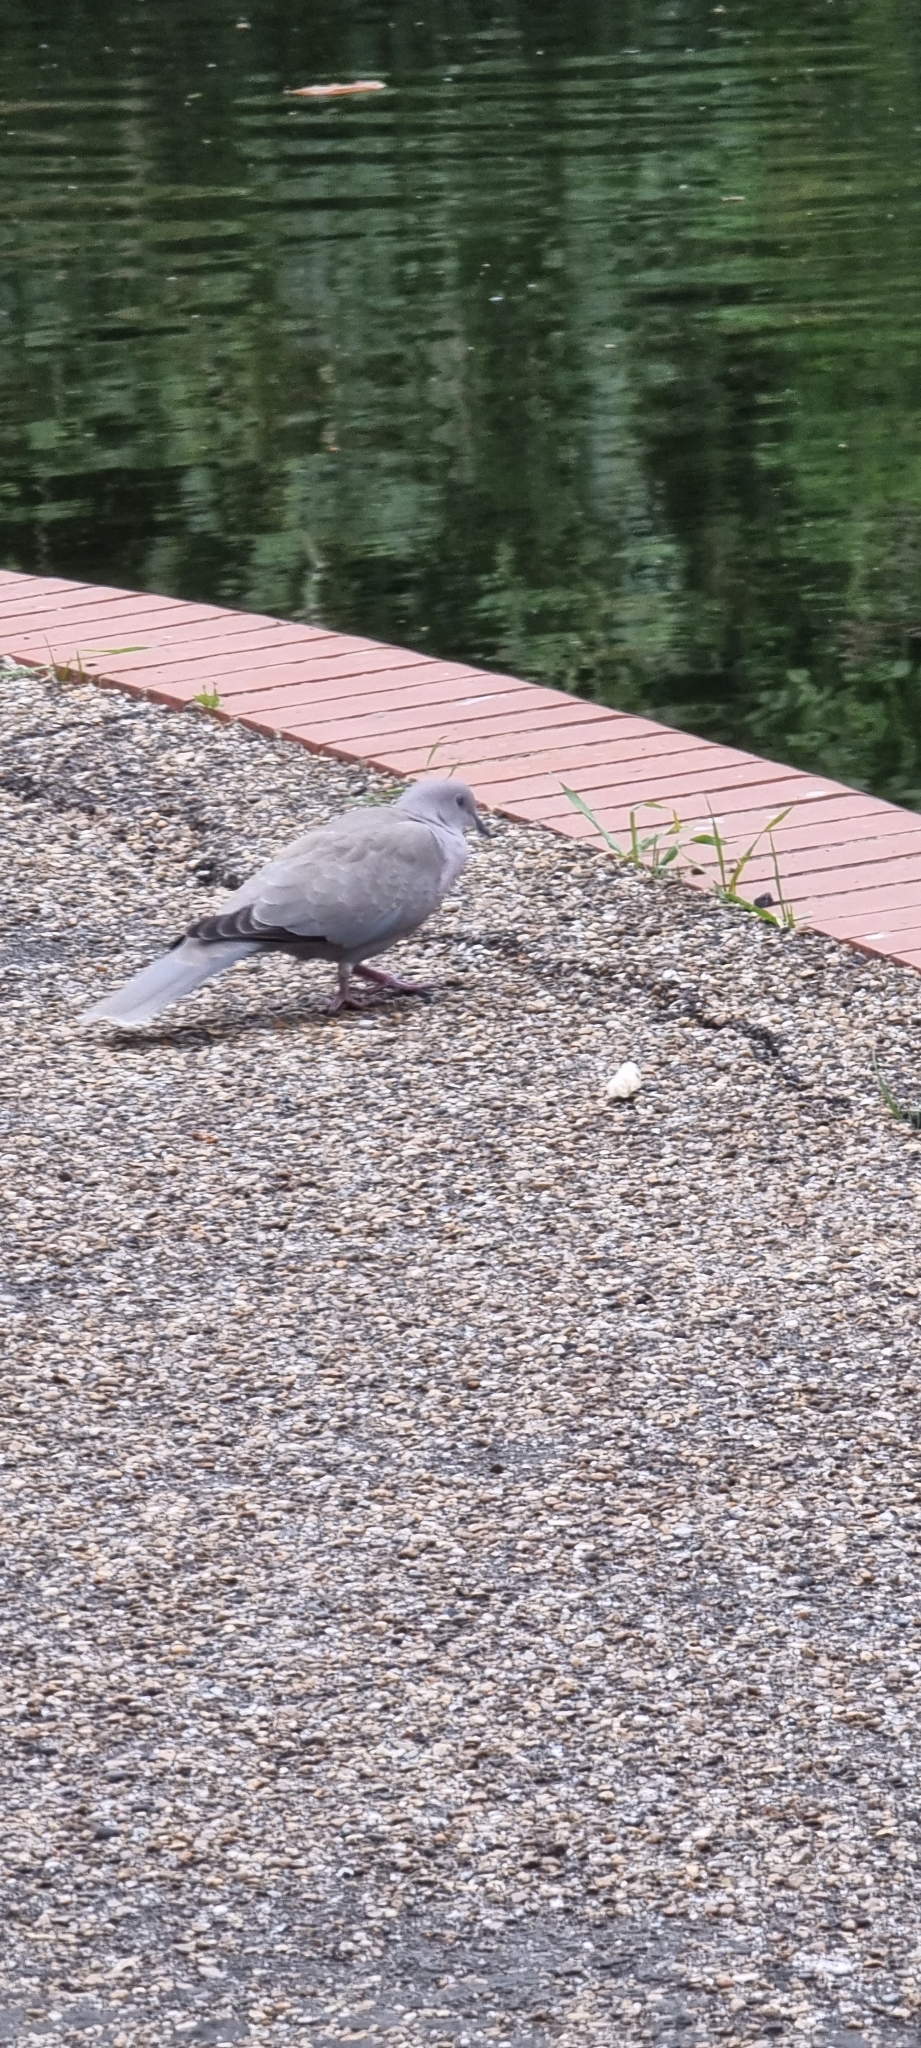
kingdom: Animalia
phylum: Chordata
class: Aves
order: Columbiformes
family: Columbidae
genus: Streptopelia
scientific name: Streptopelia decaocto
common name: Eurasian collared dove
